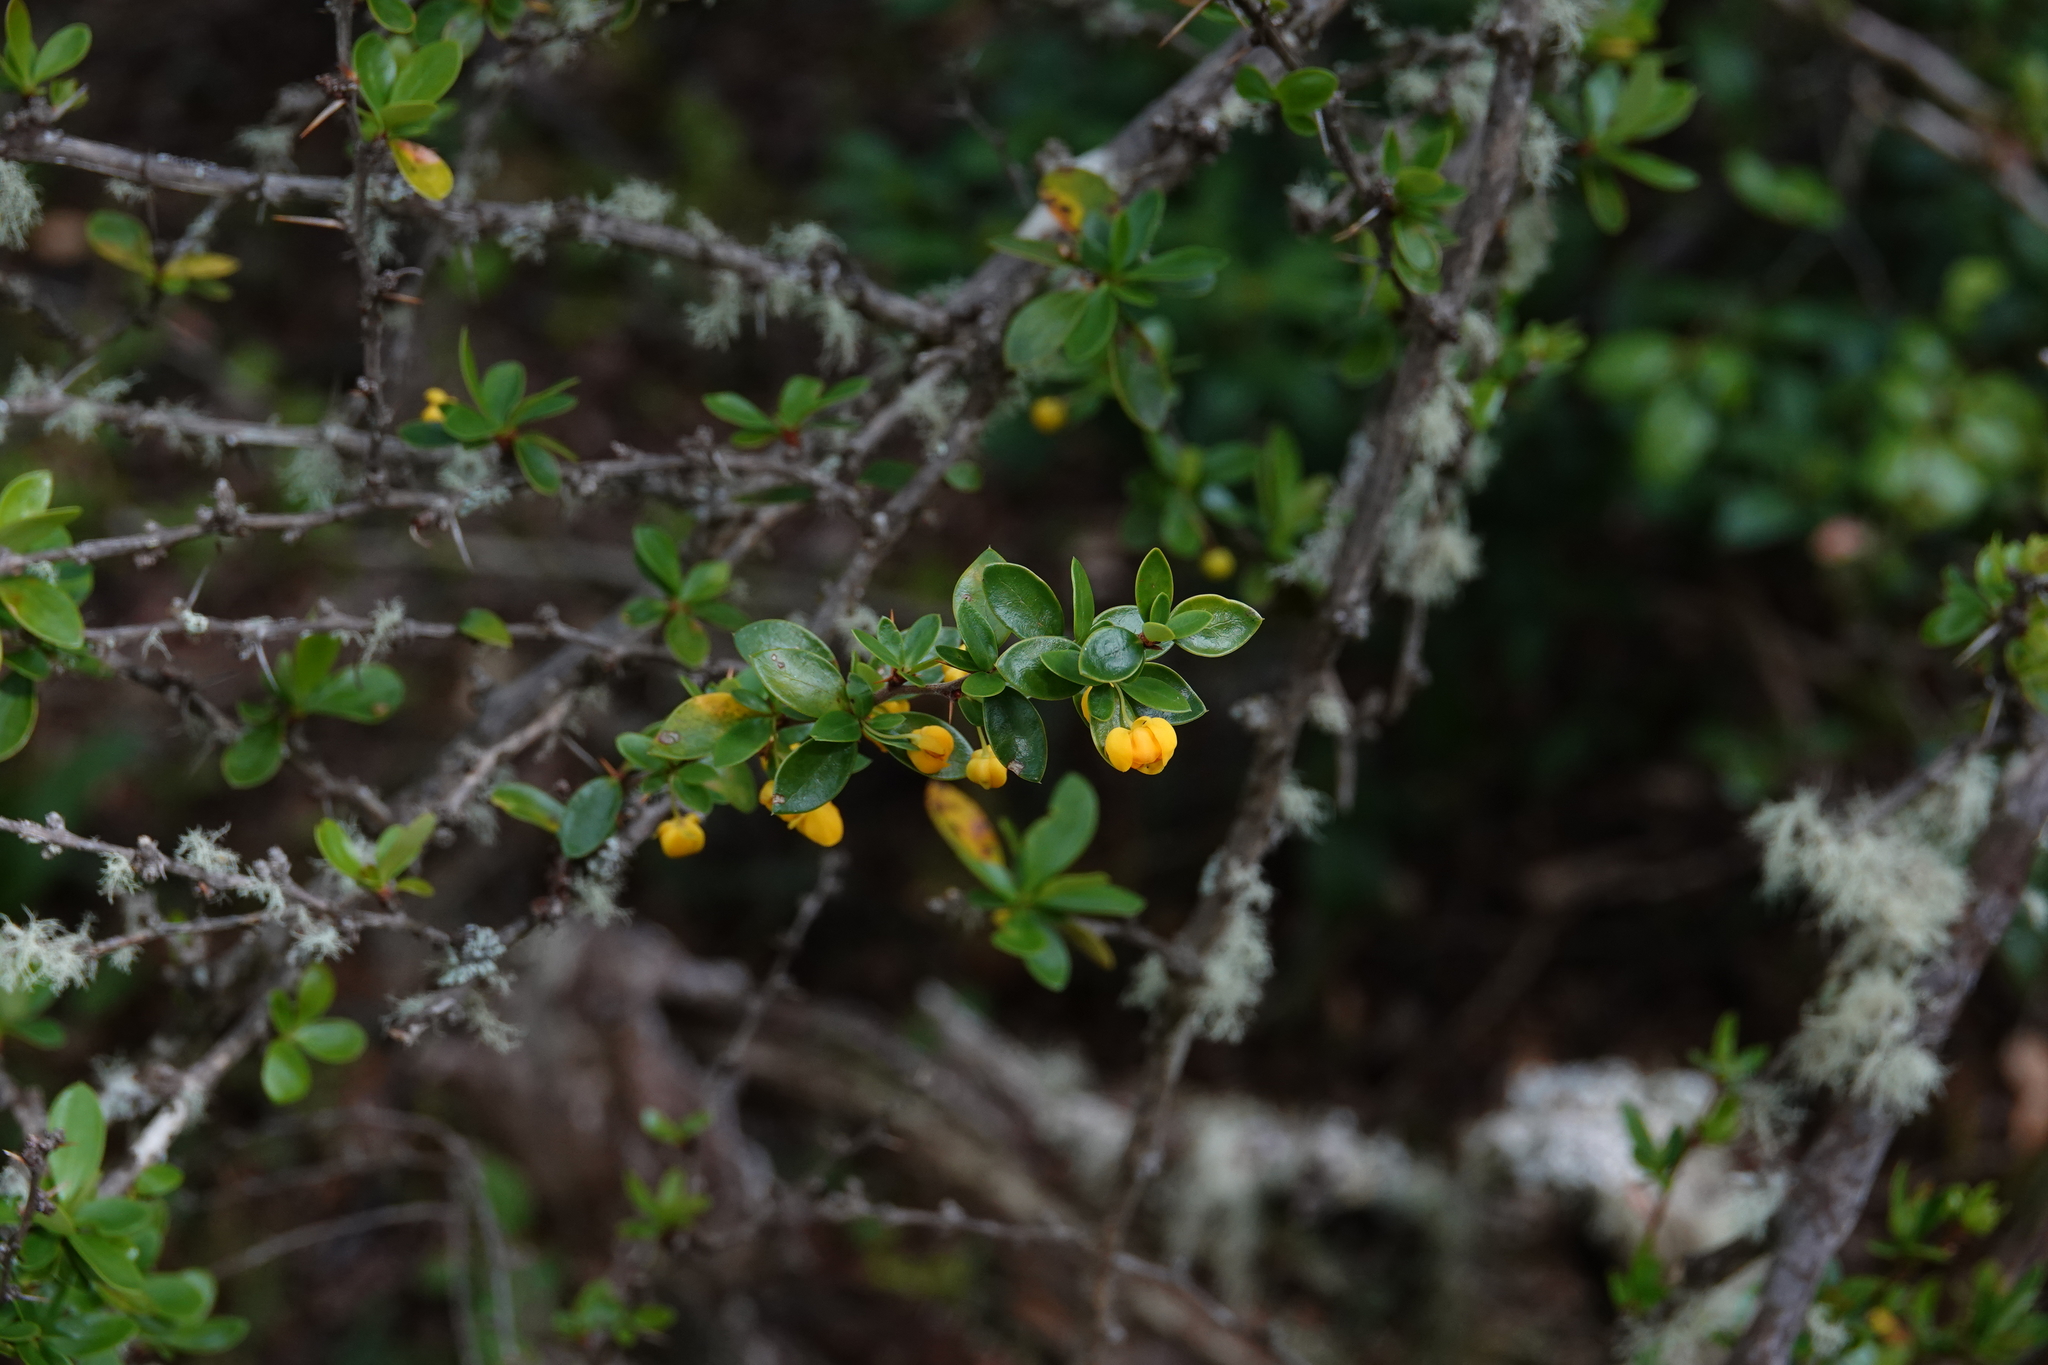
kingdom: Plantae
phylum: Tracheophyta
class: Magnoliopsida
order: Ranunculales
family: Berberidaceae
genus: Berberis
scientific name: Berberis microphylla
